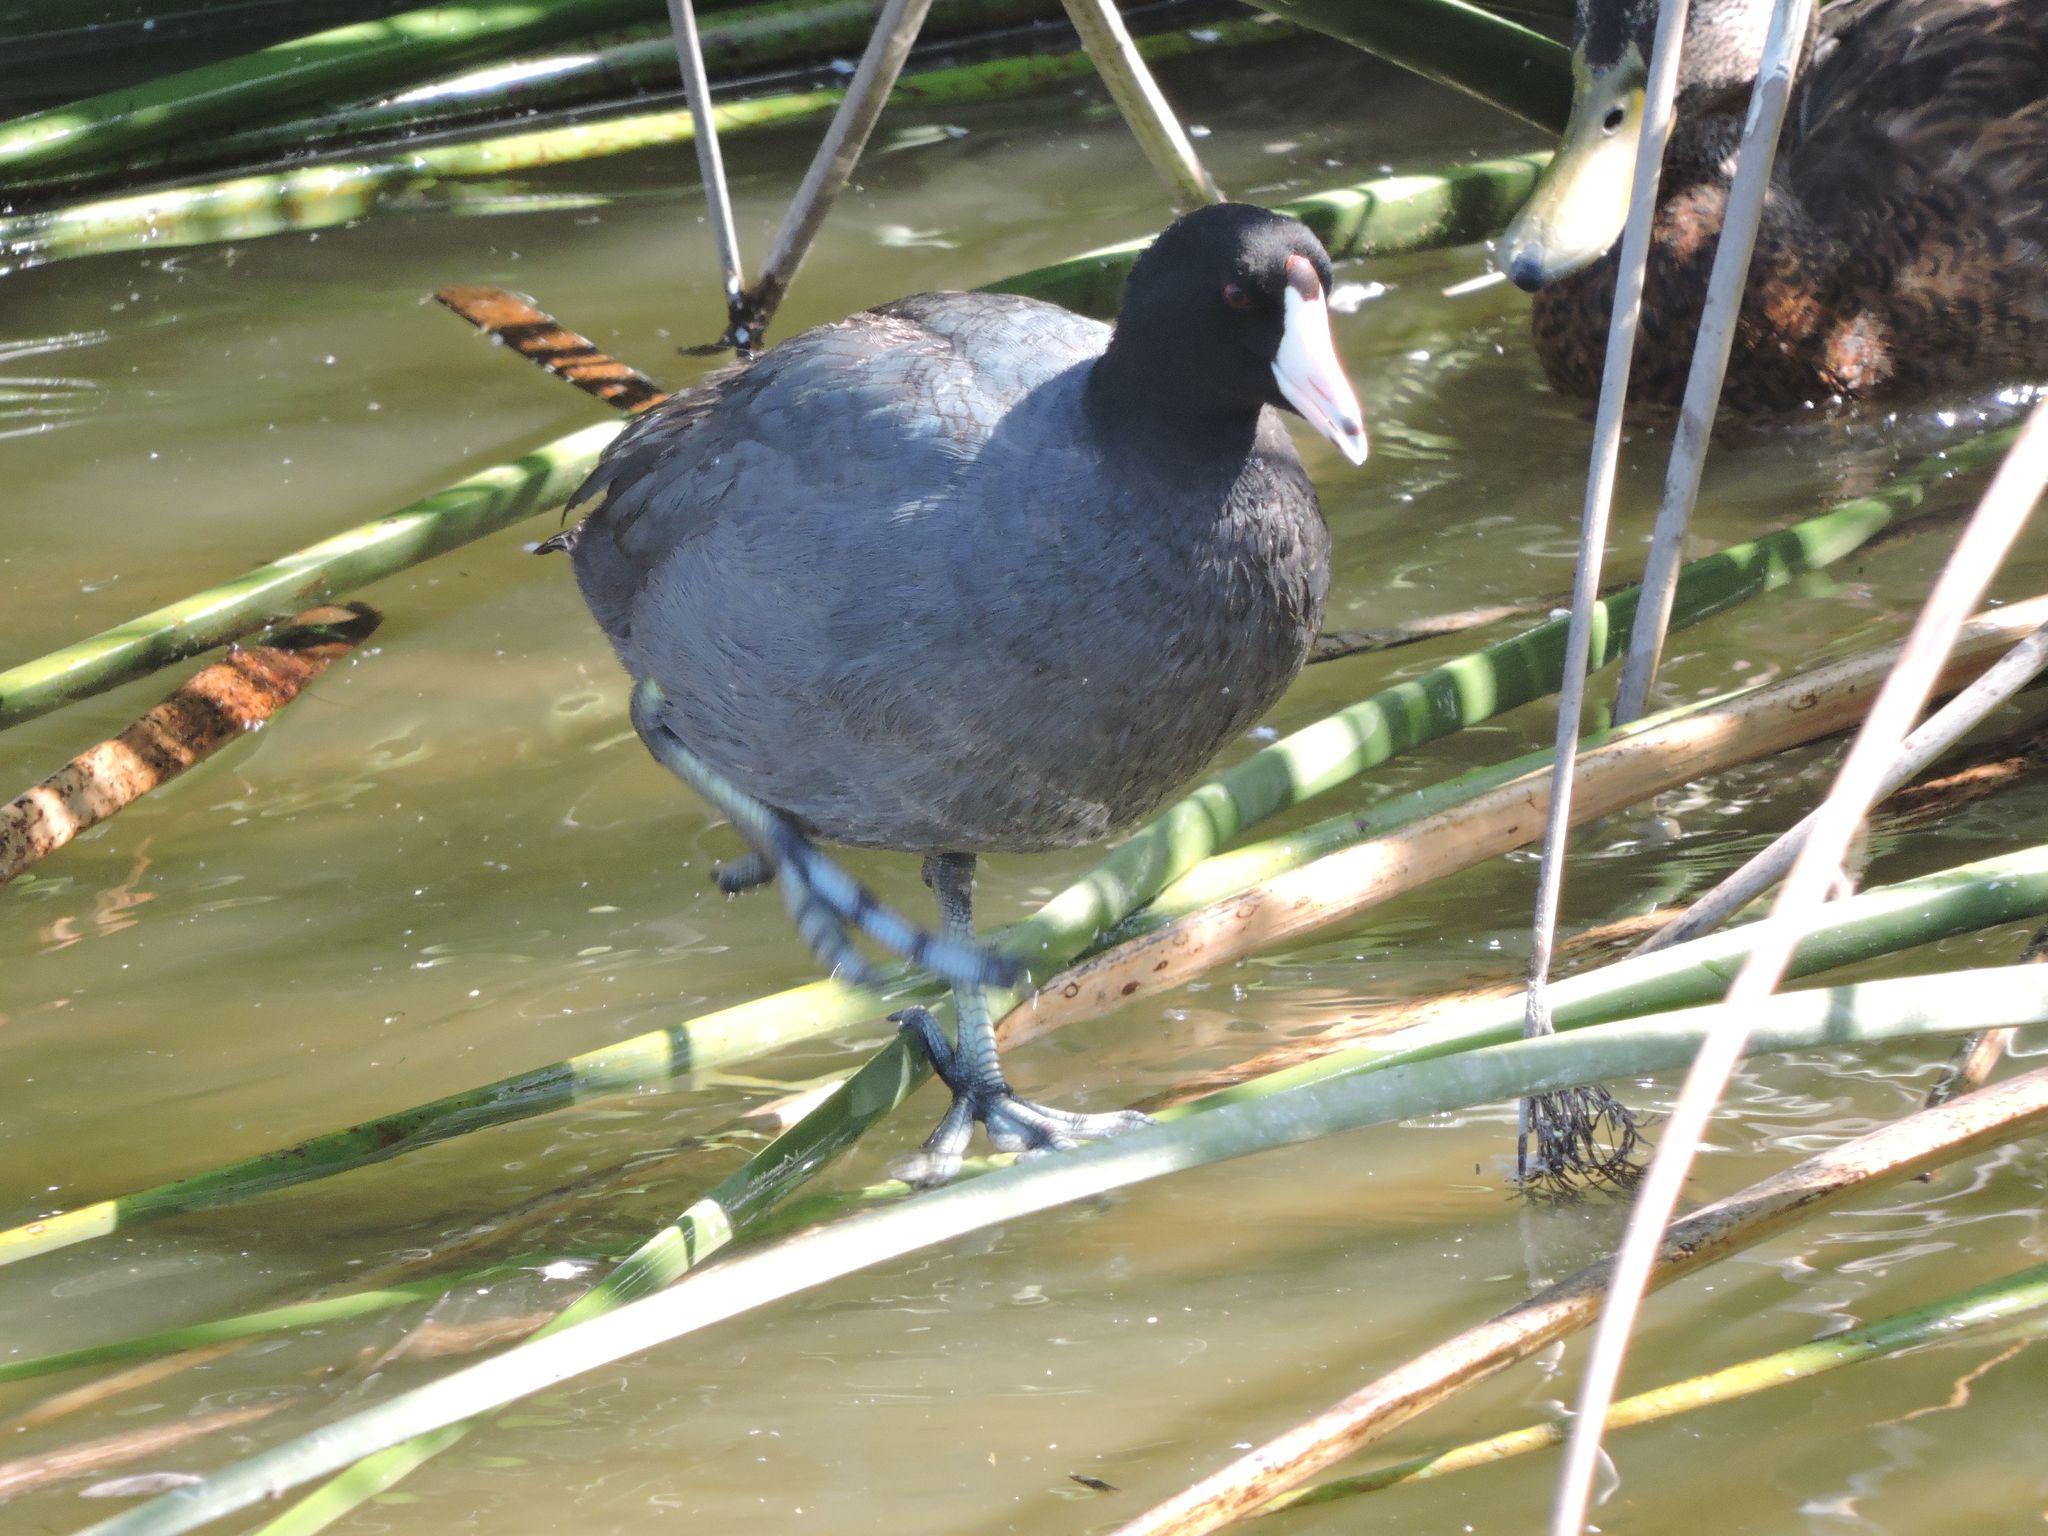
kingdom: Animalia
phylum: Chordata
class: Aves
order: Gruiformes
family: Rallidae
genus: Fulica
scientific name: Fulica americana
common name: American coot
